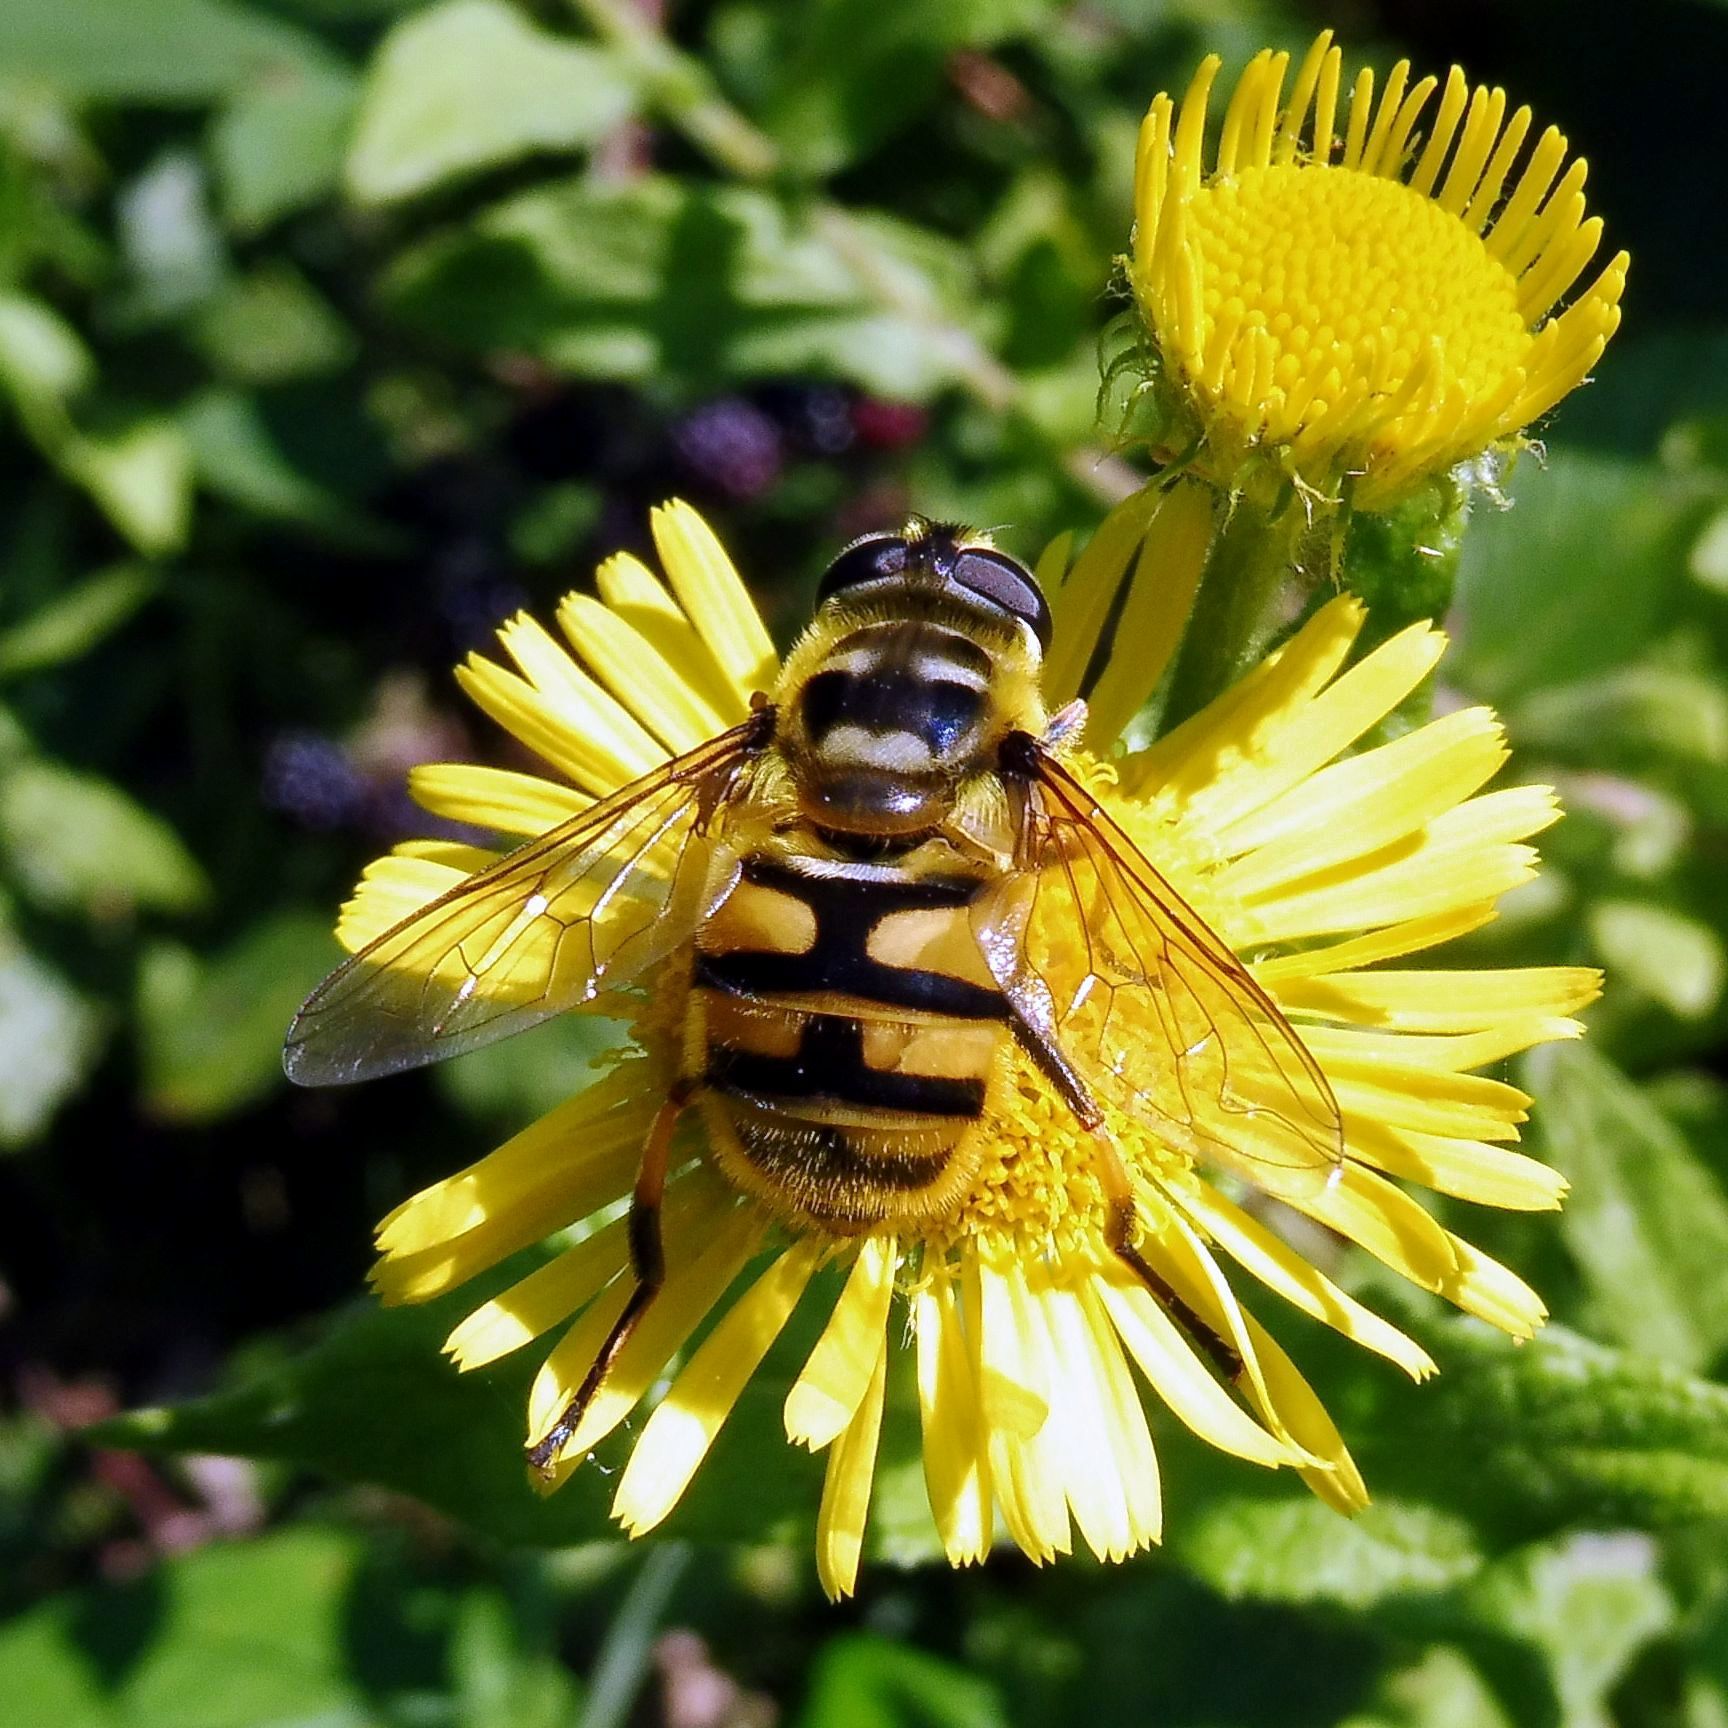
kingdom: Animalia
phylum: Arthropoda
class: Insecta
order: Diptera
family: Syrphidae
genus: Myathropa
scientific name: Myathropa florea
